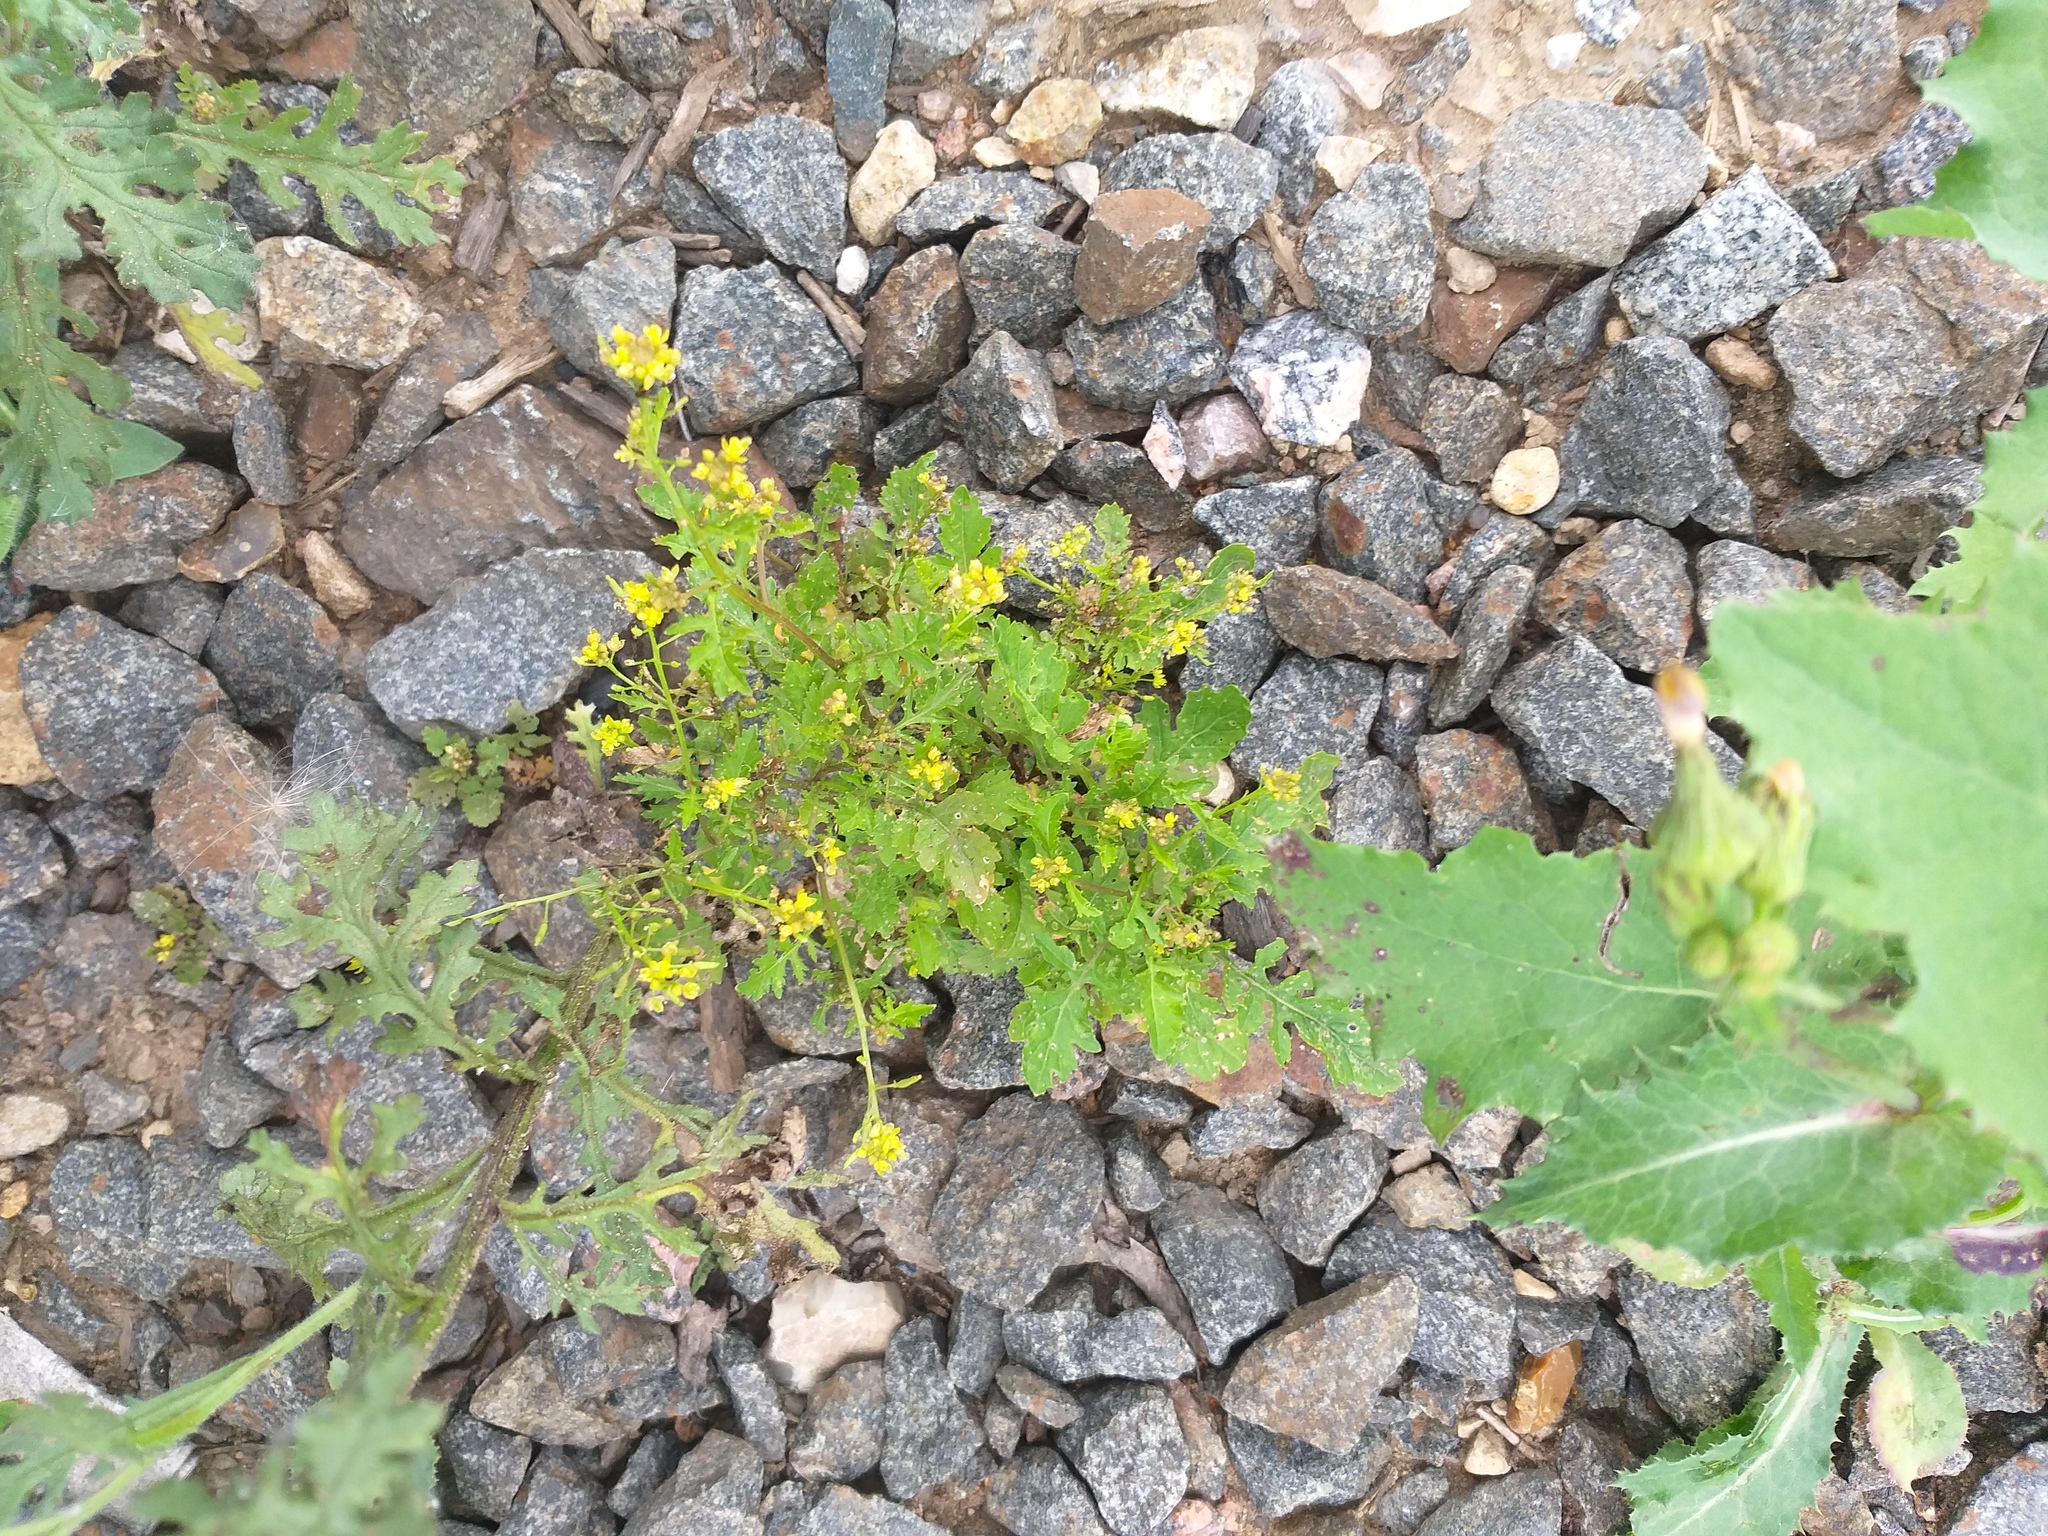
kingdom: Plantae
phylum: Tracheophyta
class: Magnoliopsida
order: Brassicales
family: Brassicaceae
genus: Rorippa
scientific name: Rorippa palustris
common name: Marsh yellow-cress
